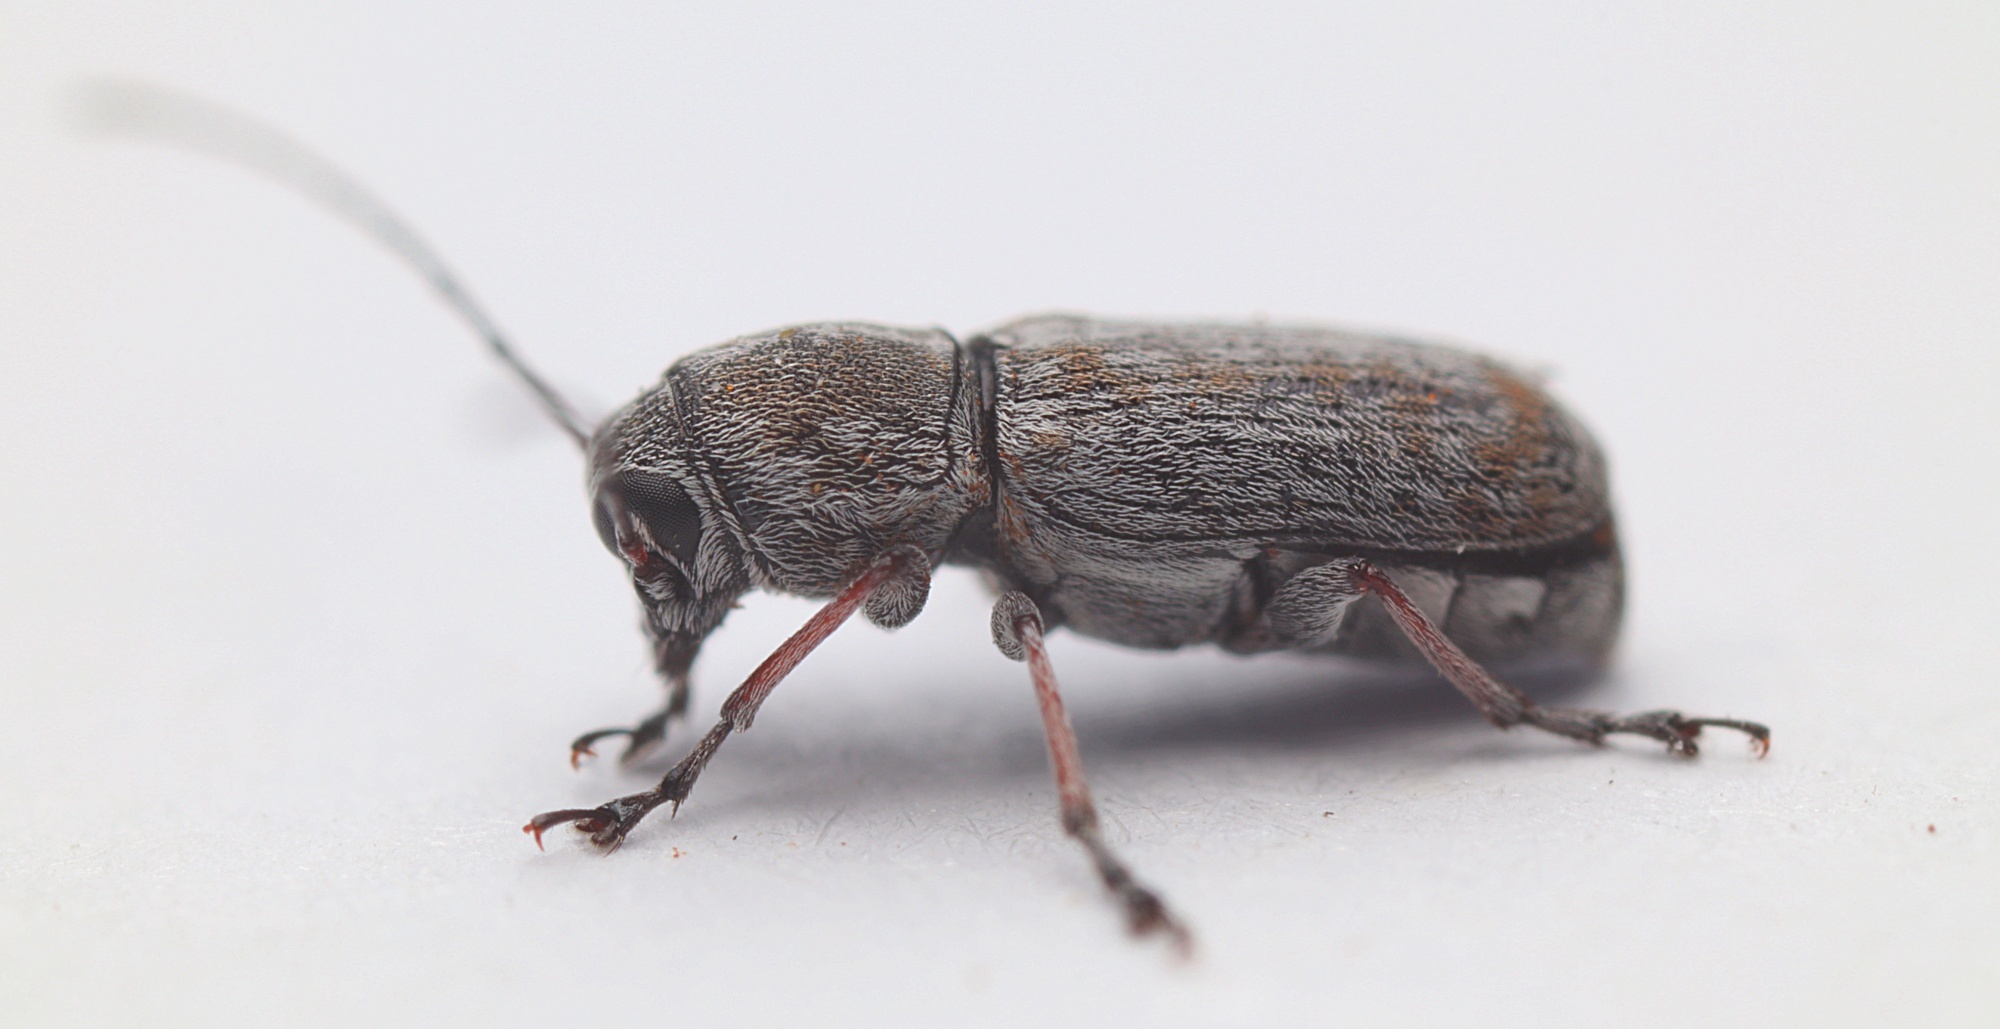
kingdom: Animalia
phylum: Arthropoda
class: Insecta
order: Coleoptera
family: Anthribidae
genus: Euciodes
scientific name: Euciodes suturalis
